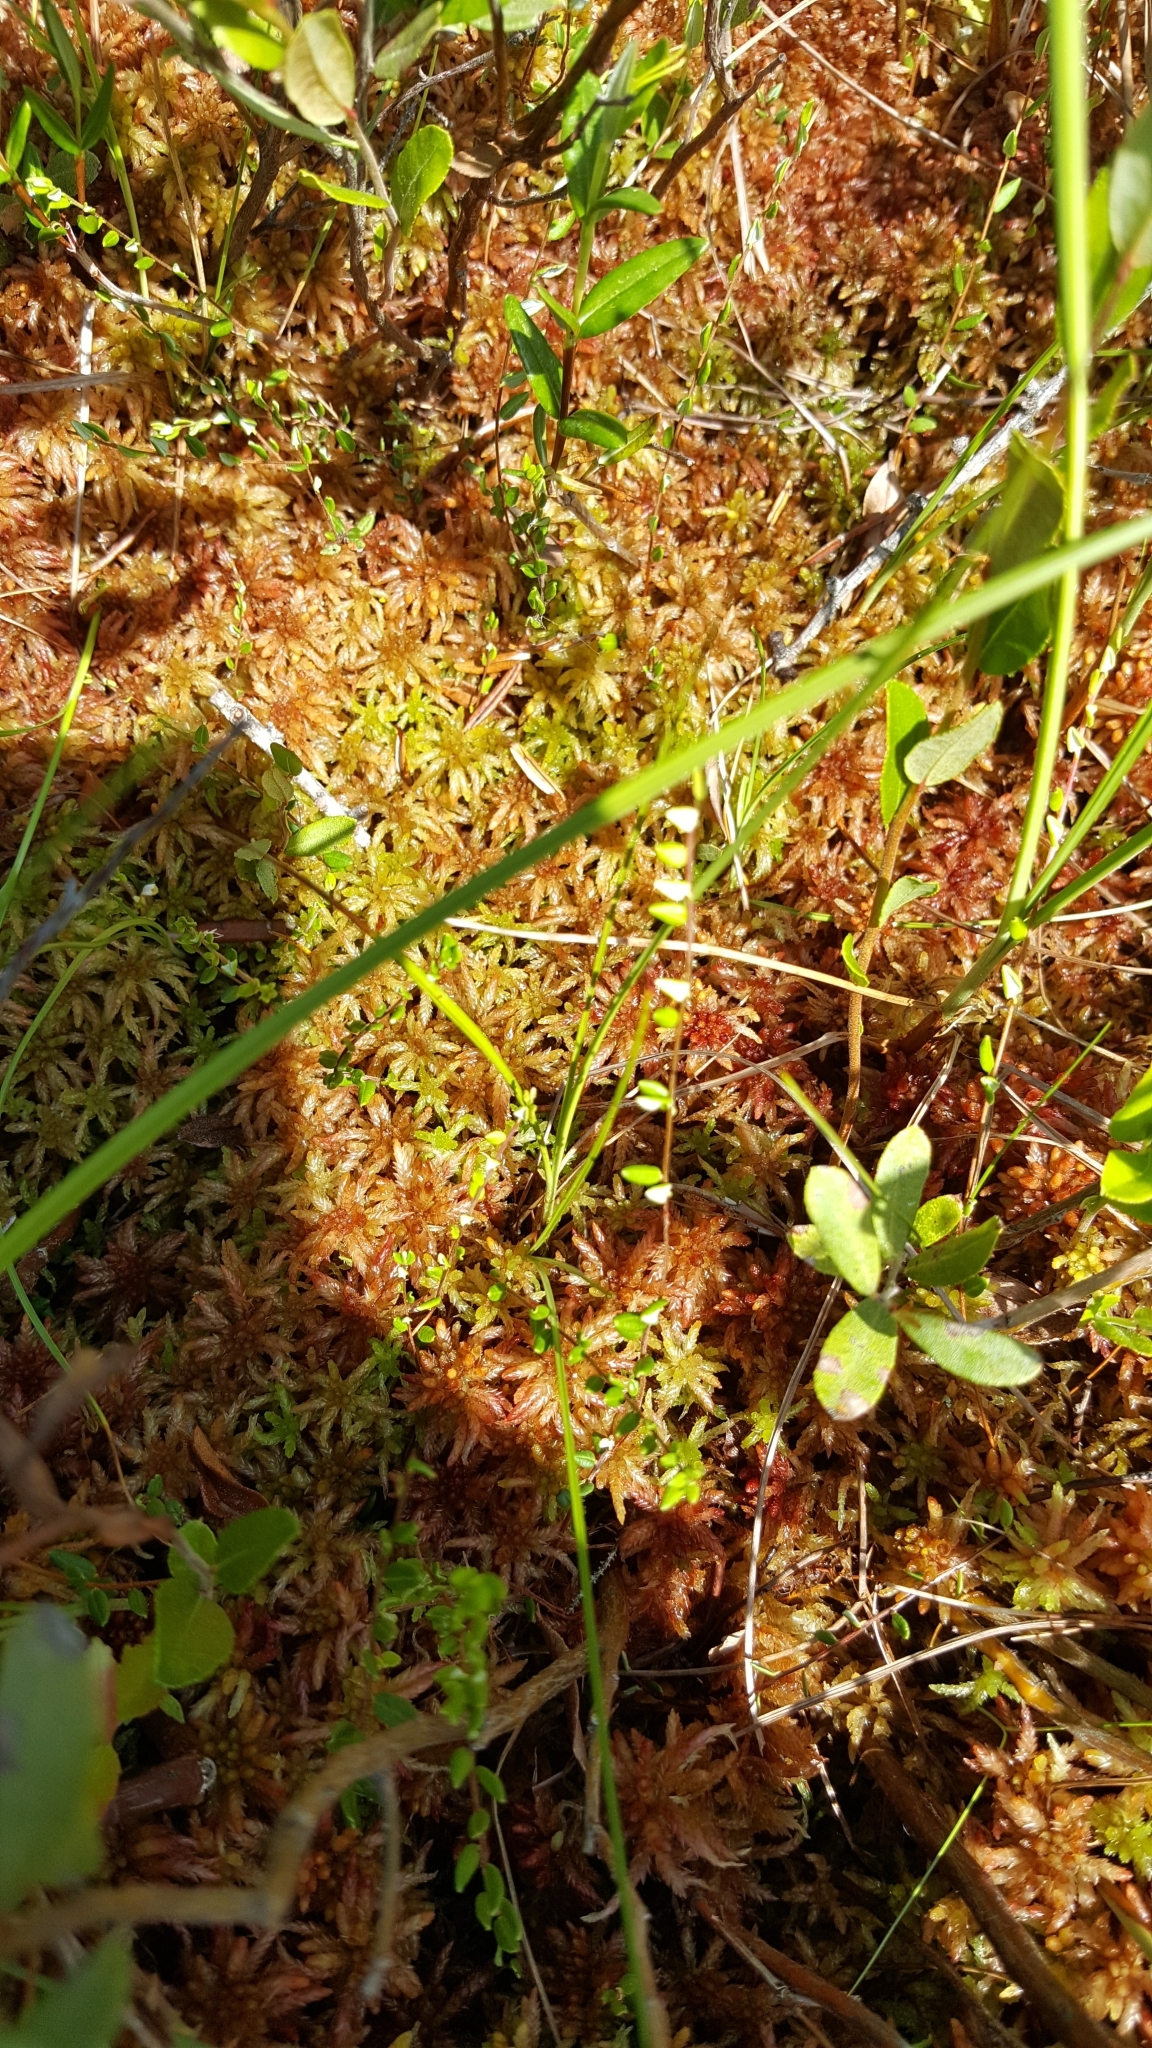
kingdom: Plantae
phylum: Tracheophyta
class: Magnoliopsida
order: Ericales
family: Ericaceae
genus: Vaccinium
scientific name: Vaccinium oxycoccos
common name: Cranberry
